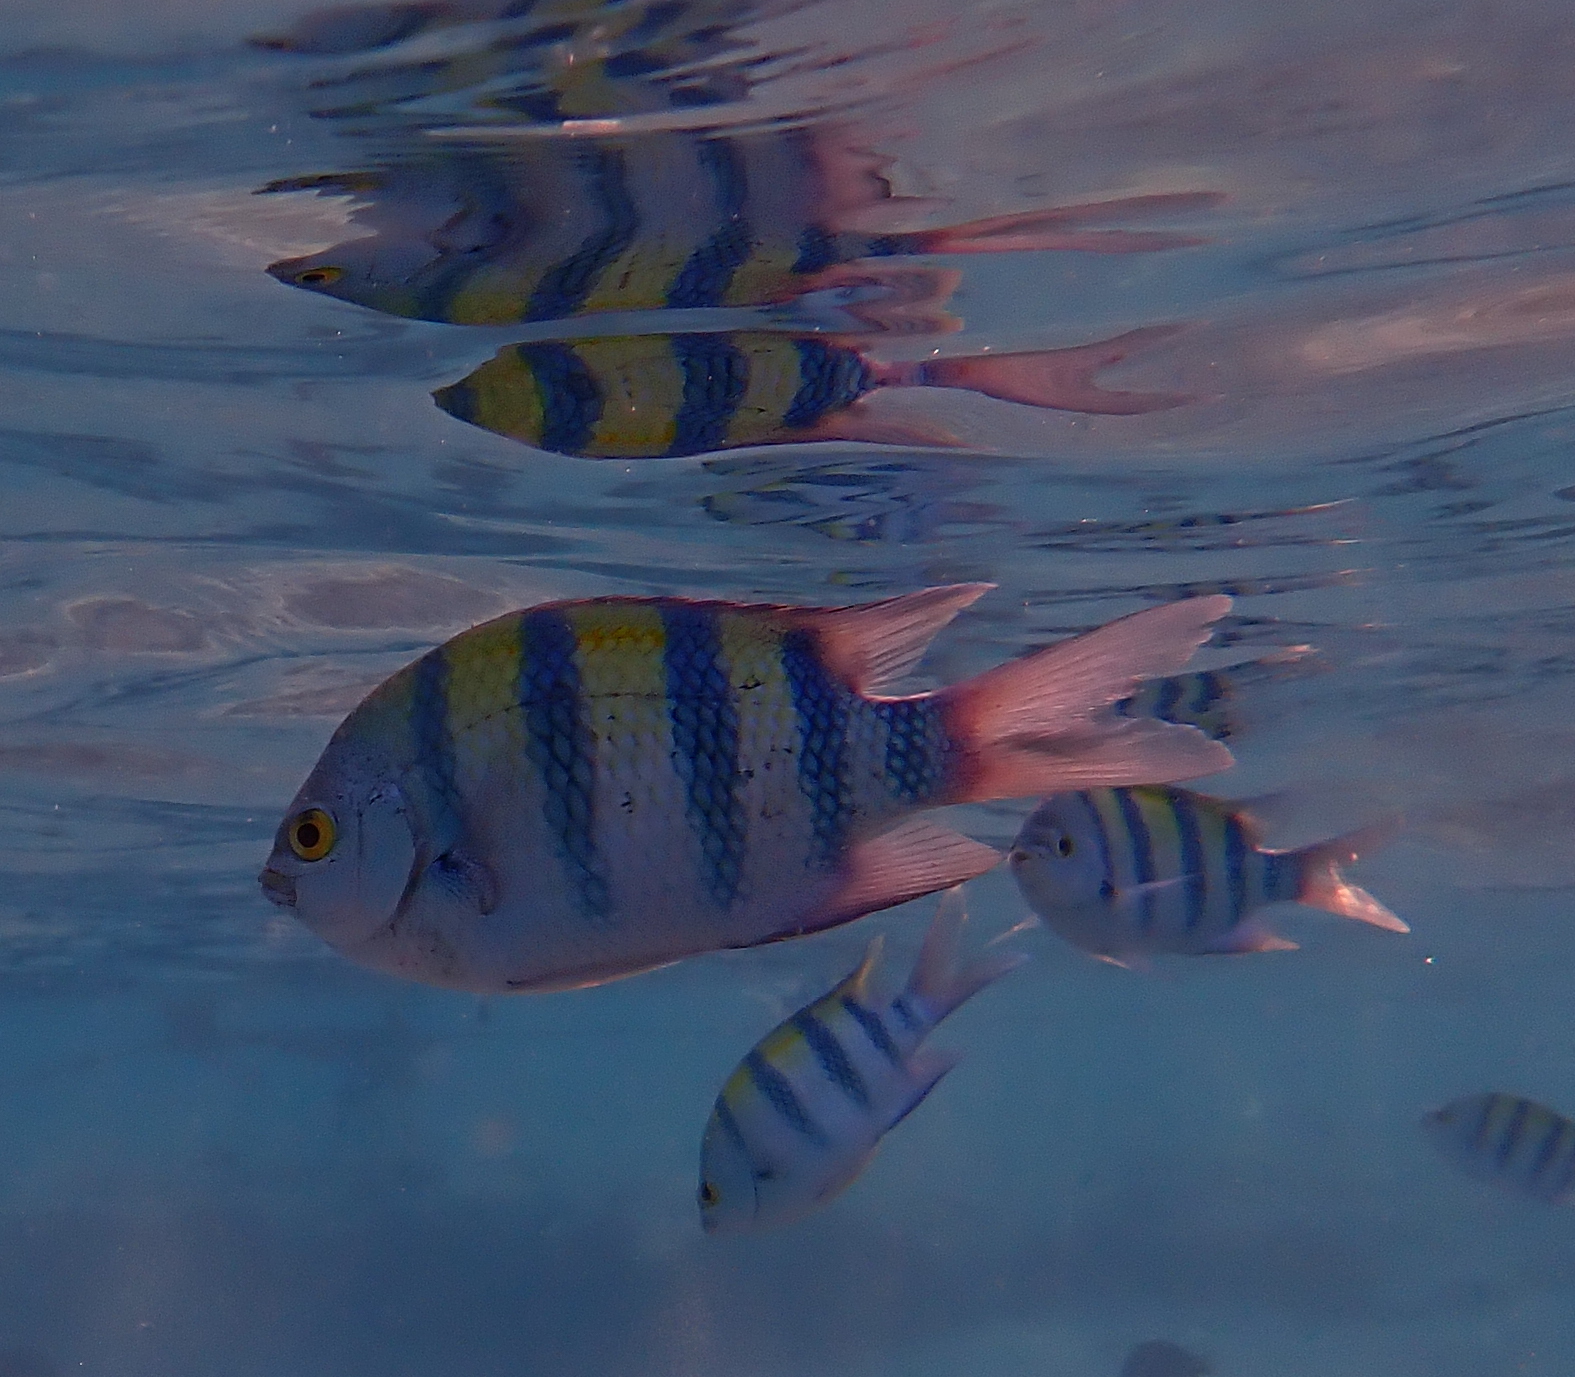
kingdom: Animalia
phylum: Chordata
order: Perciformes
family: Pomacentridae
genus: Abudefduf
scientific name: Abudefduf vaigiensis
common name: Indo-pacific sergeant
